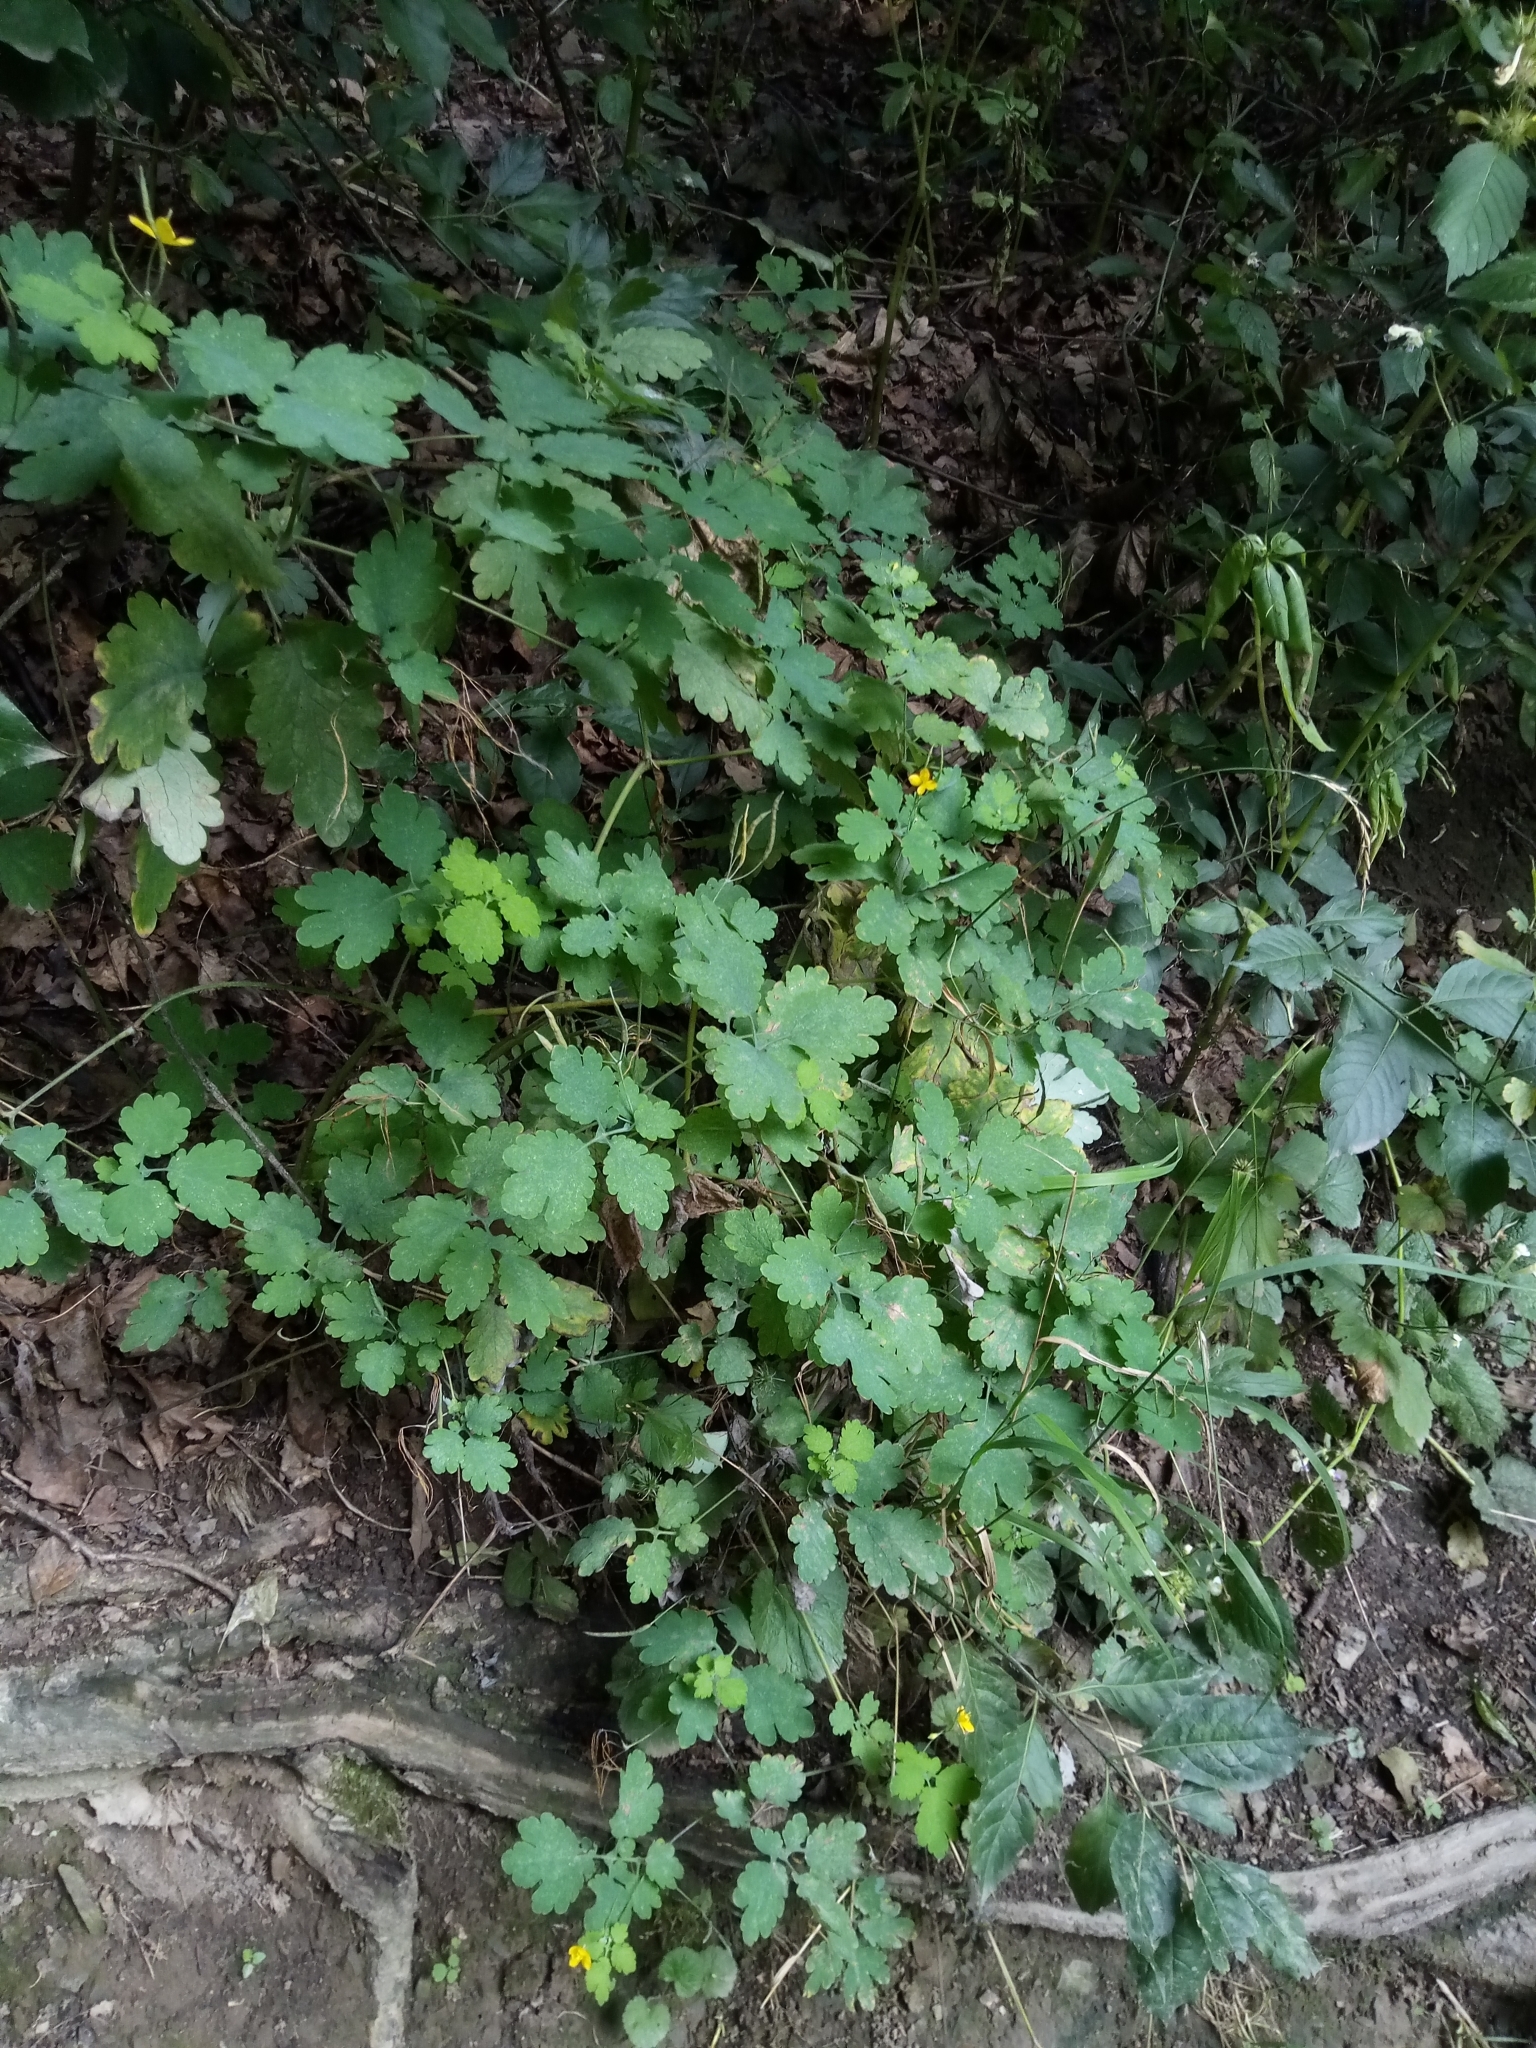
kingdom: Plantae
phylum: Tracheophyta
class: Magnoliopsida
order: Ranunculales
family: Papaveraceae
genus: Chelidonium
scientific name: Chelidonium majus
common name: Greater celandine
